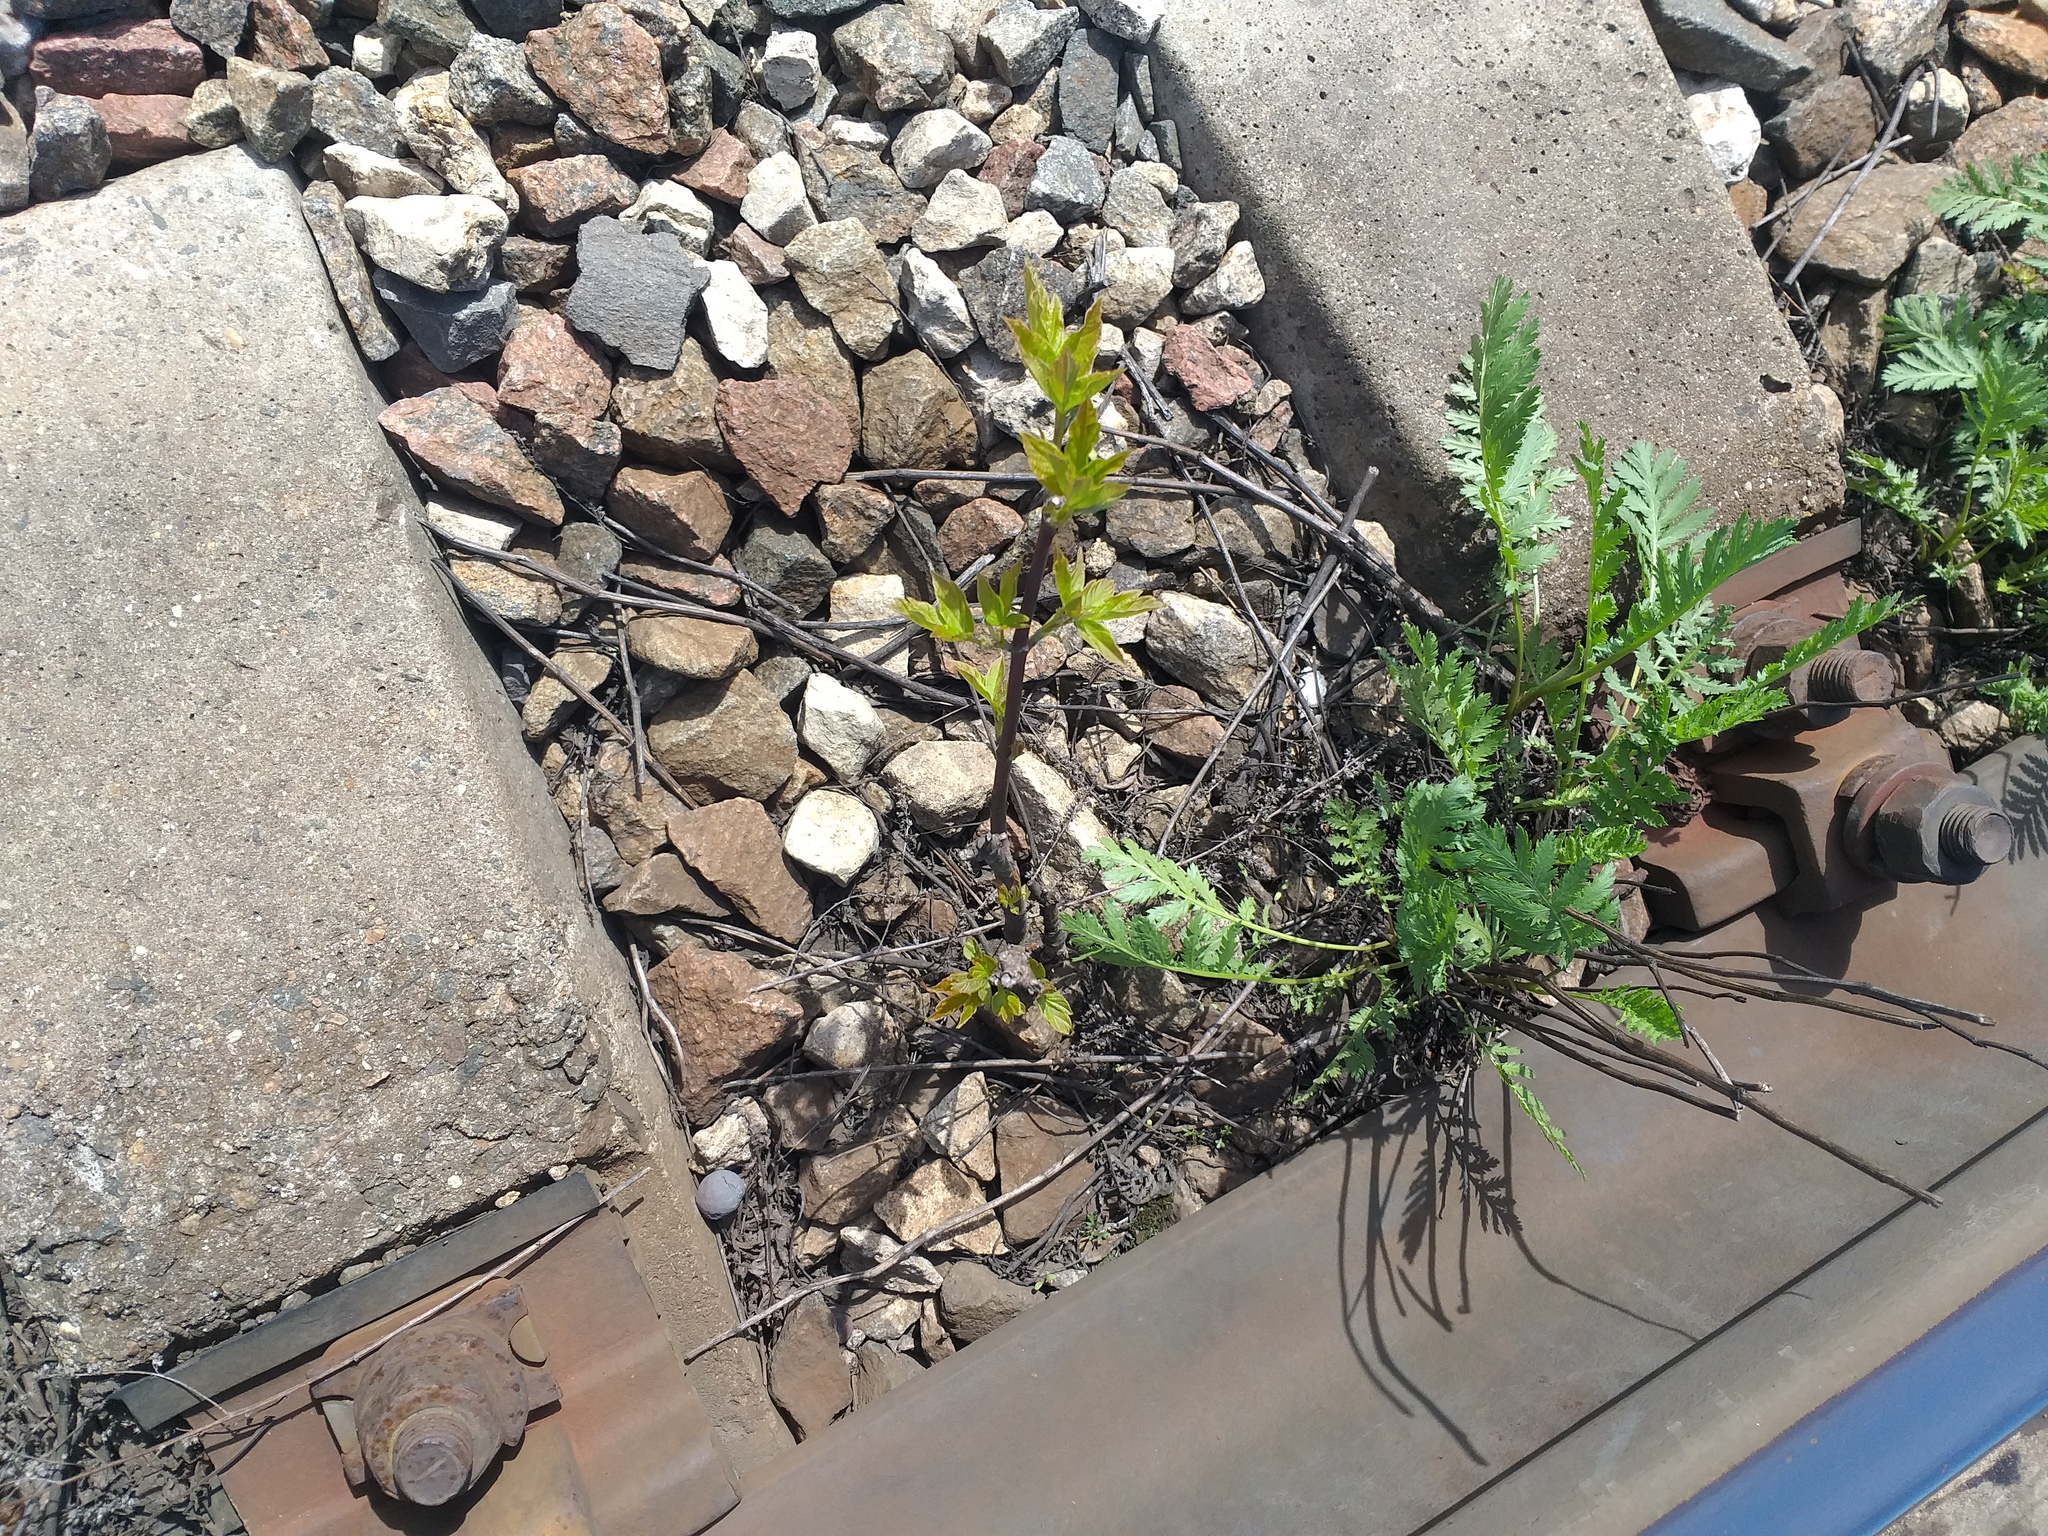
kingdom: Plantae
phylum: Tracheophyta
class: Magnoliopsida
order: Sapindales
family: Sapindaceae
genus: Acer
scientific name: Acer negundo
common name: Ashleaf maple
